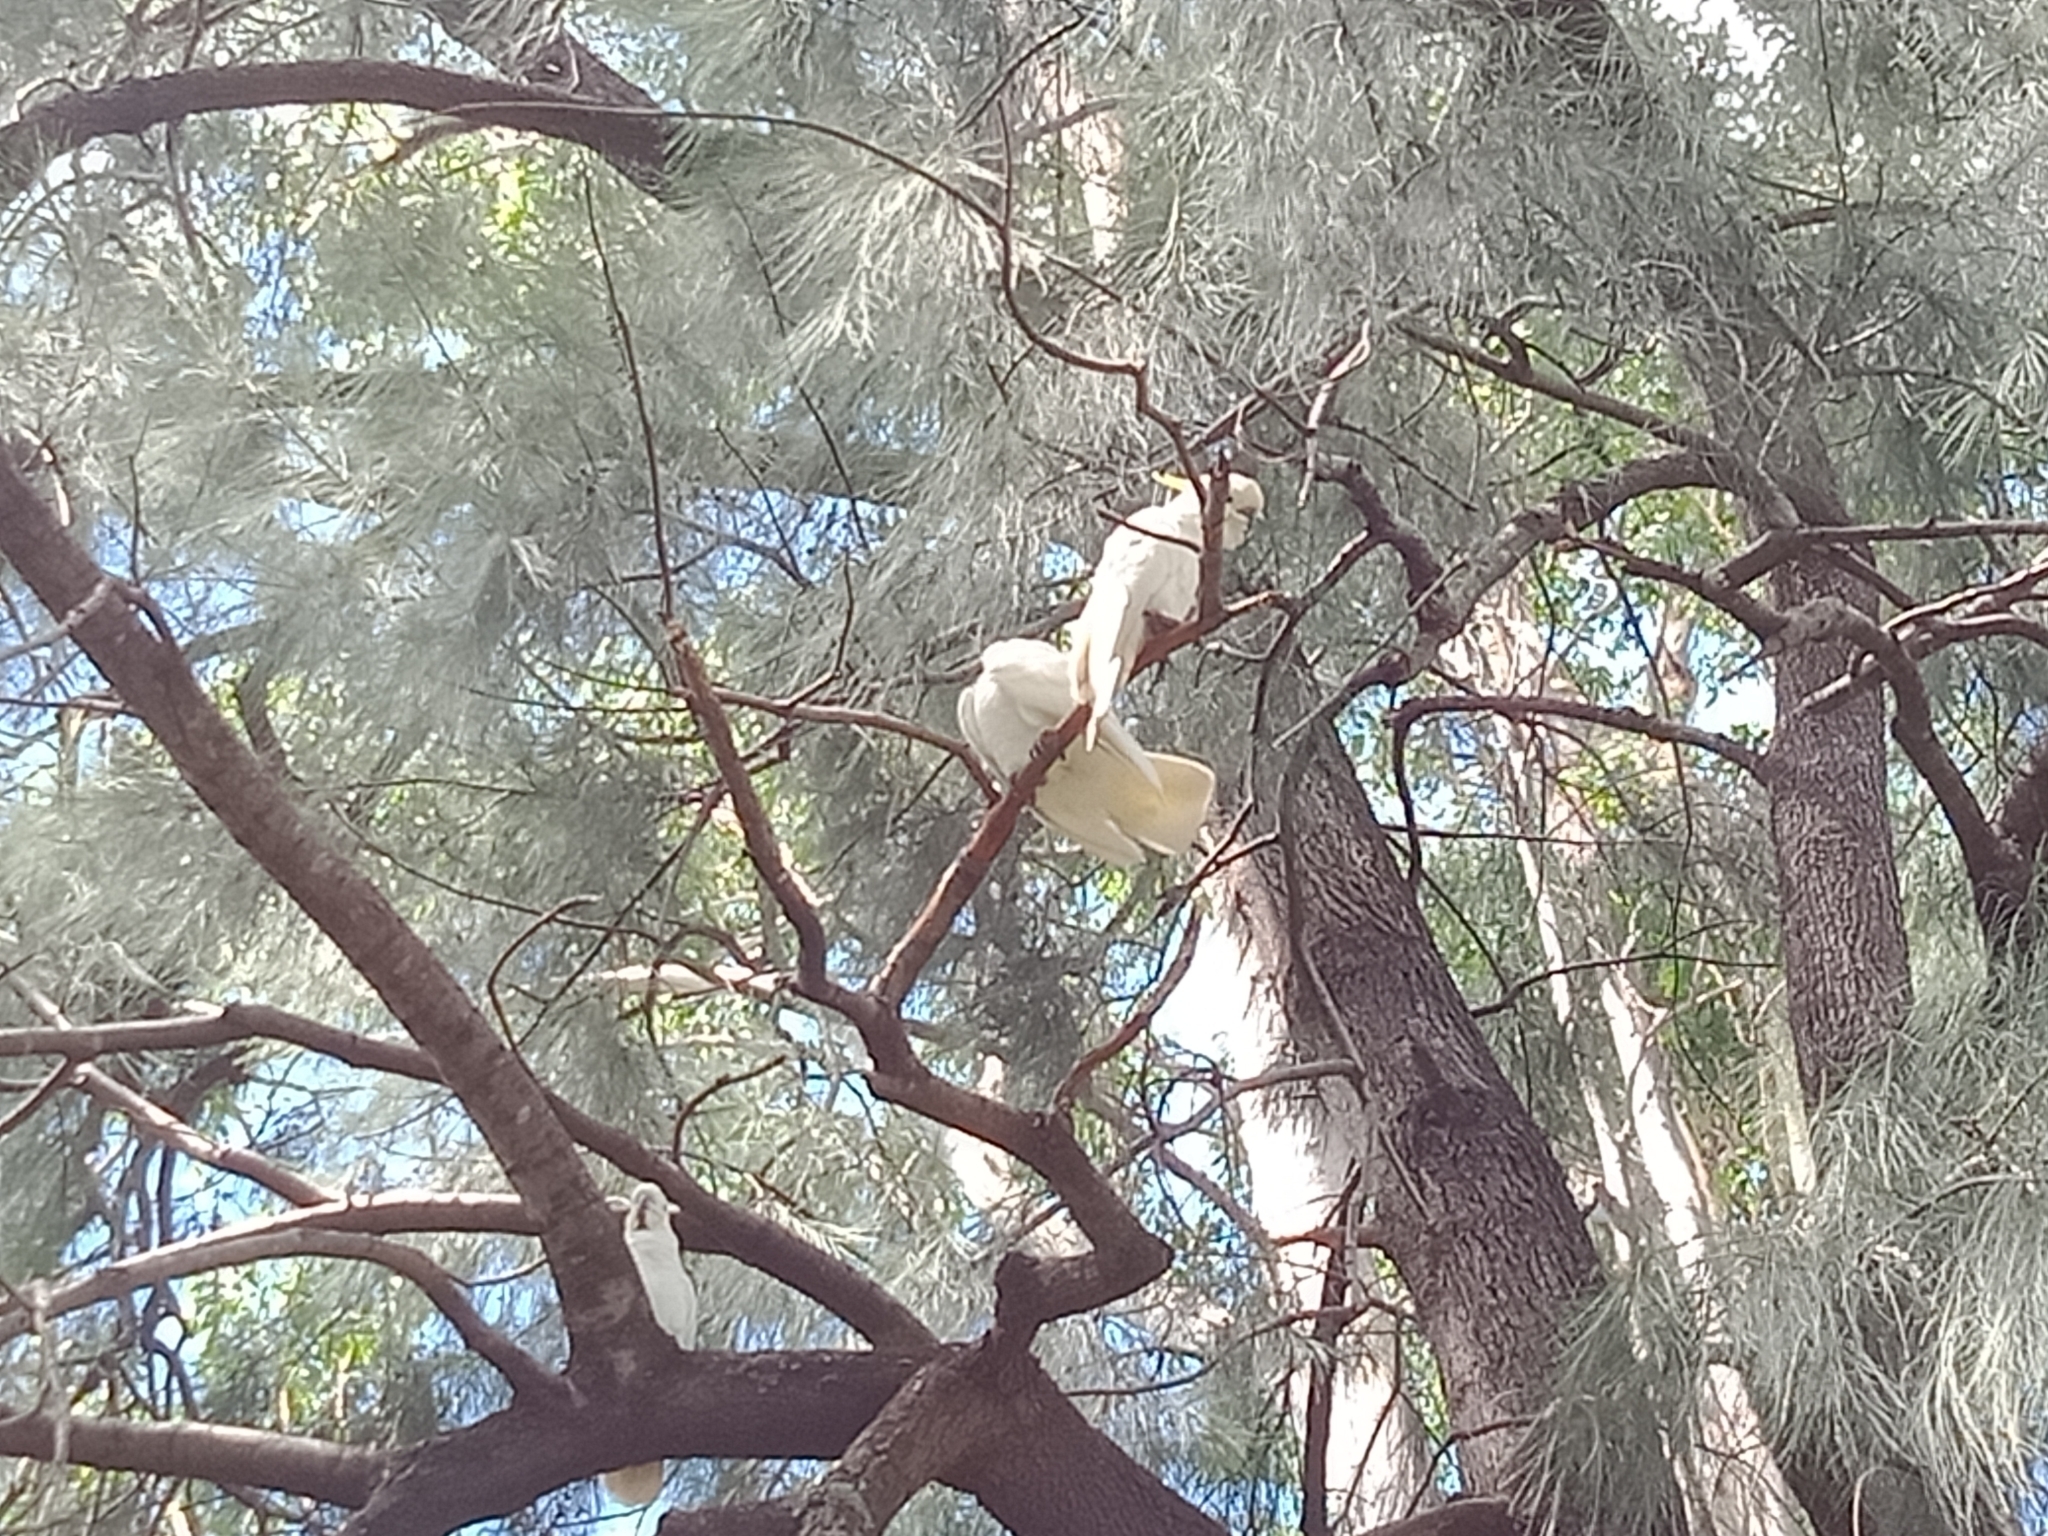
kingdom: Animalia
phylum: Chordata
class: Aves
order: Psittaciformes
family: Psittacidae
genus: Cacatua
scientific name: Cacatua galerita
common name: Sulphur-crested cockatoo
